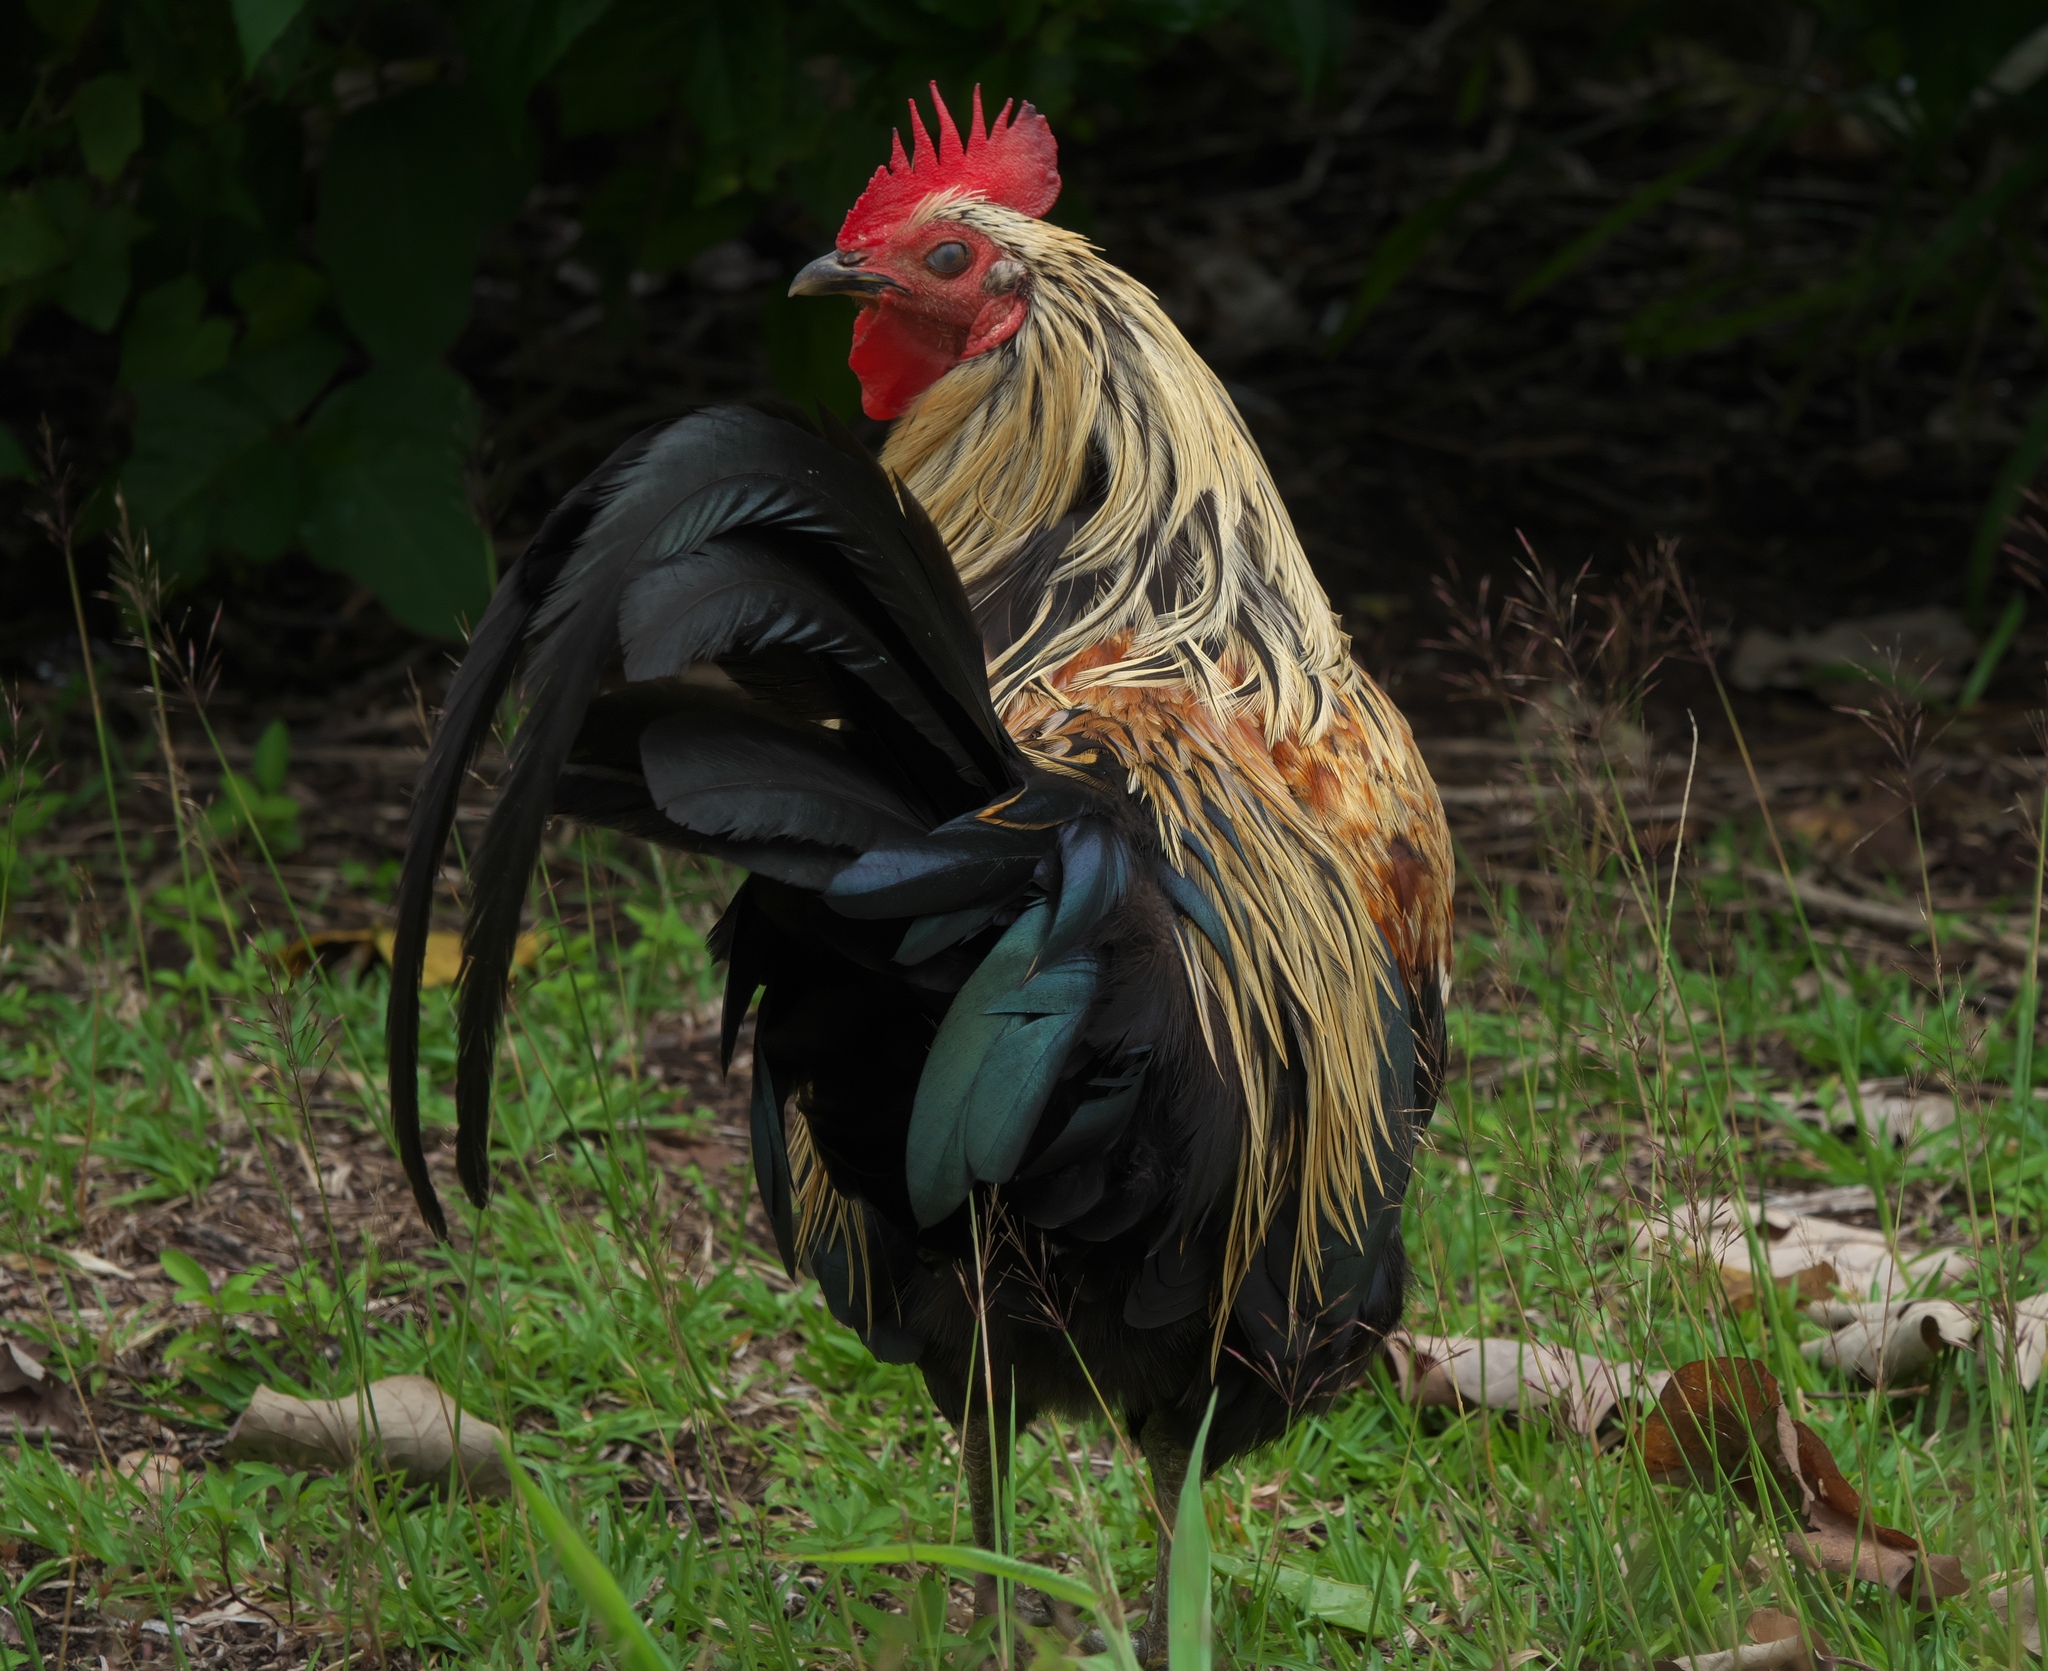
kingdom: Animalia
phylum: Chordata
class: Aves
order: Galliformes
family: Phasianidae
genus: Gallus
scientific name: Gallus gallus
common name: Red junglefowl
